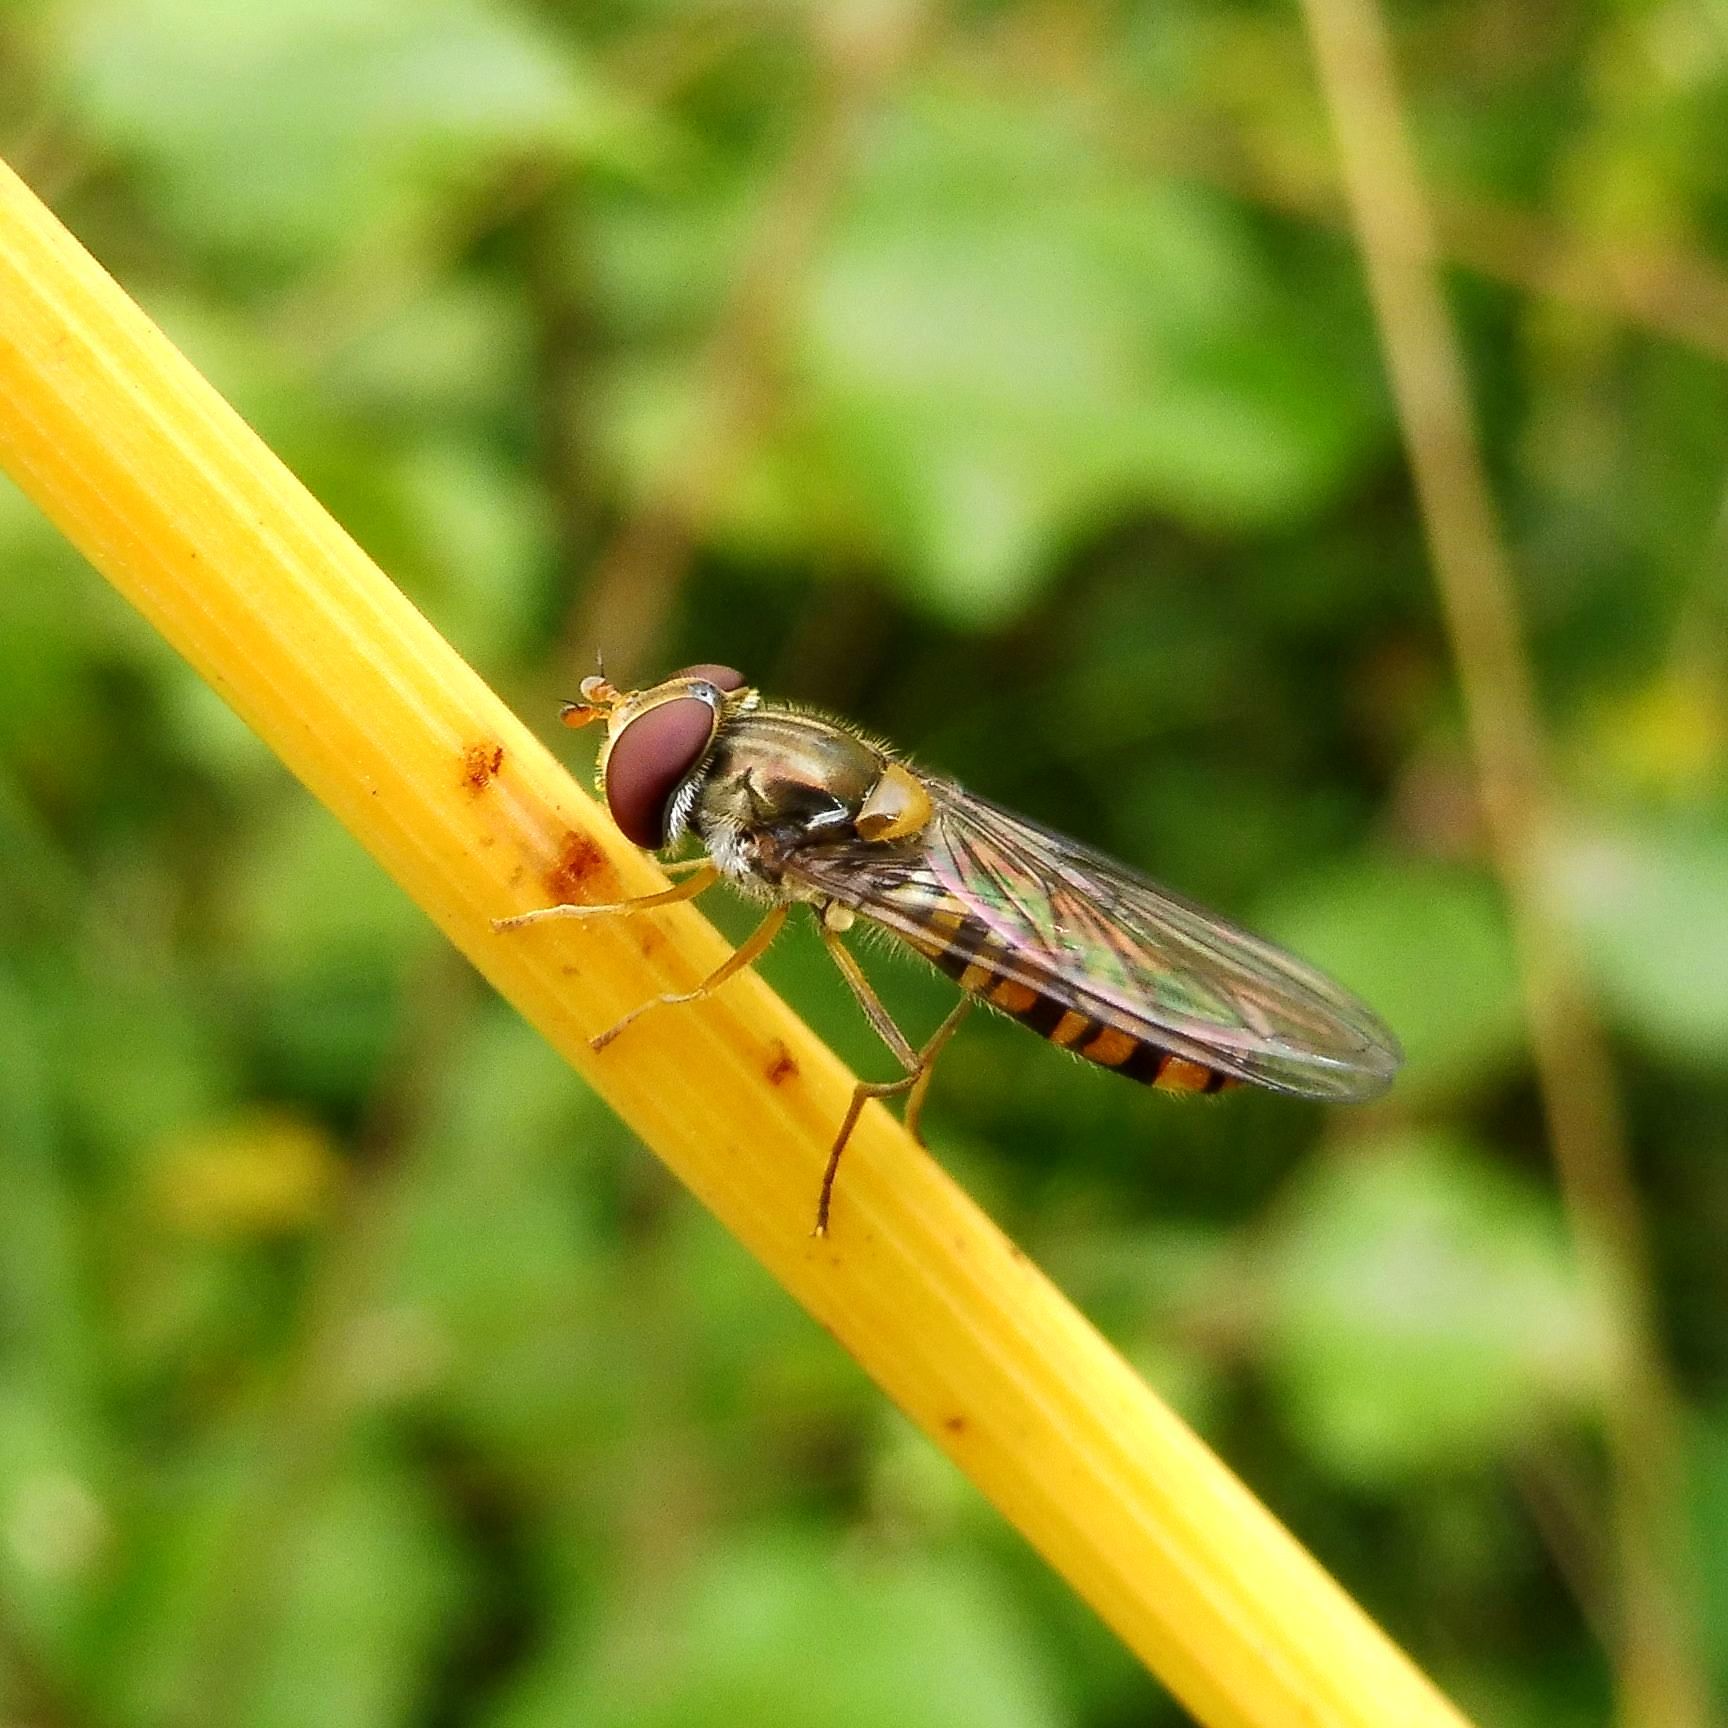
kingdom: Animalia
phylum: Arthropoda
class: Insecta
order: Diptera
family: Syrphidae
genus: Episyrphus
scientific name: Episyrphus balteatus
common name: Marmalade hoverfly
